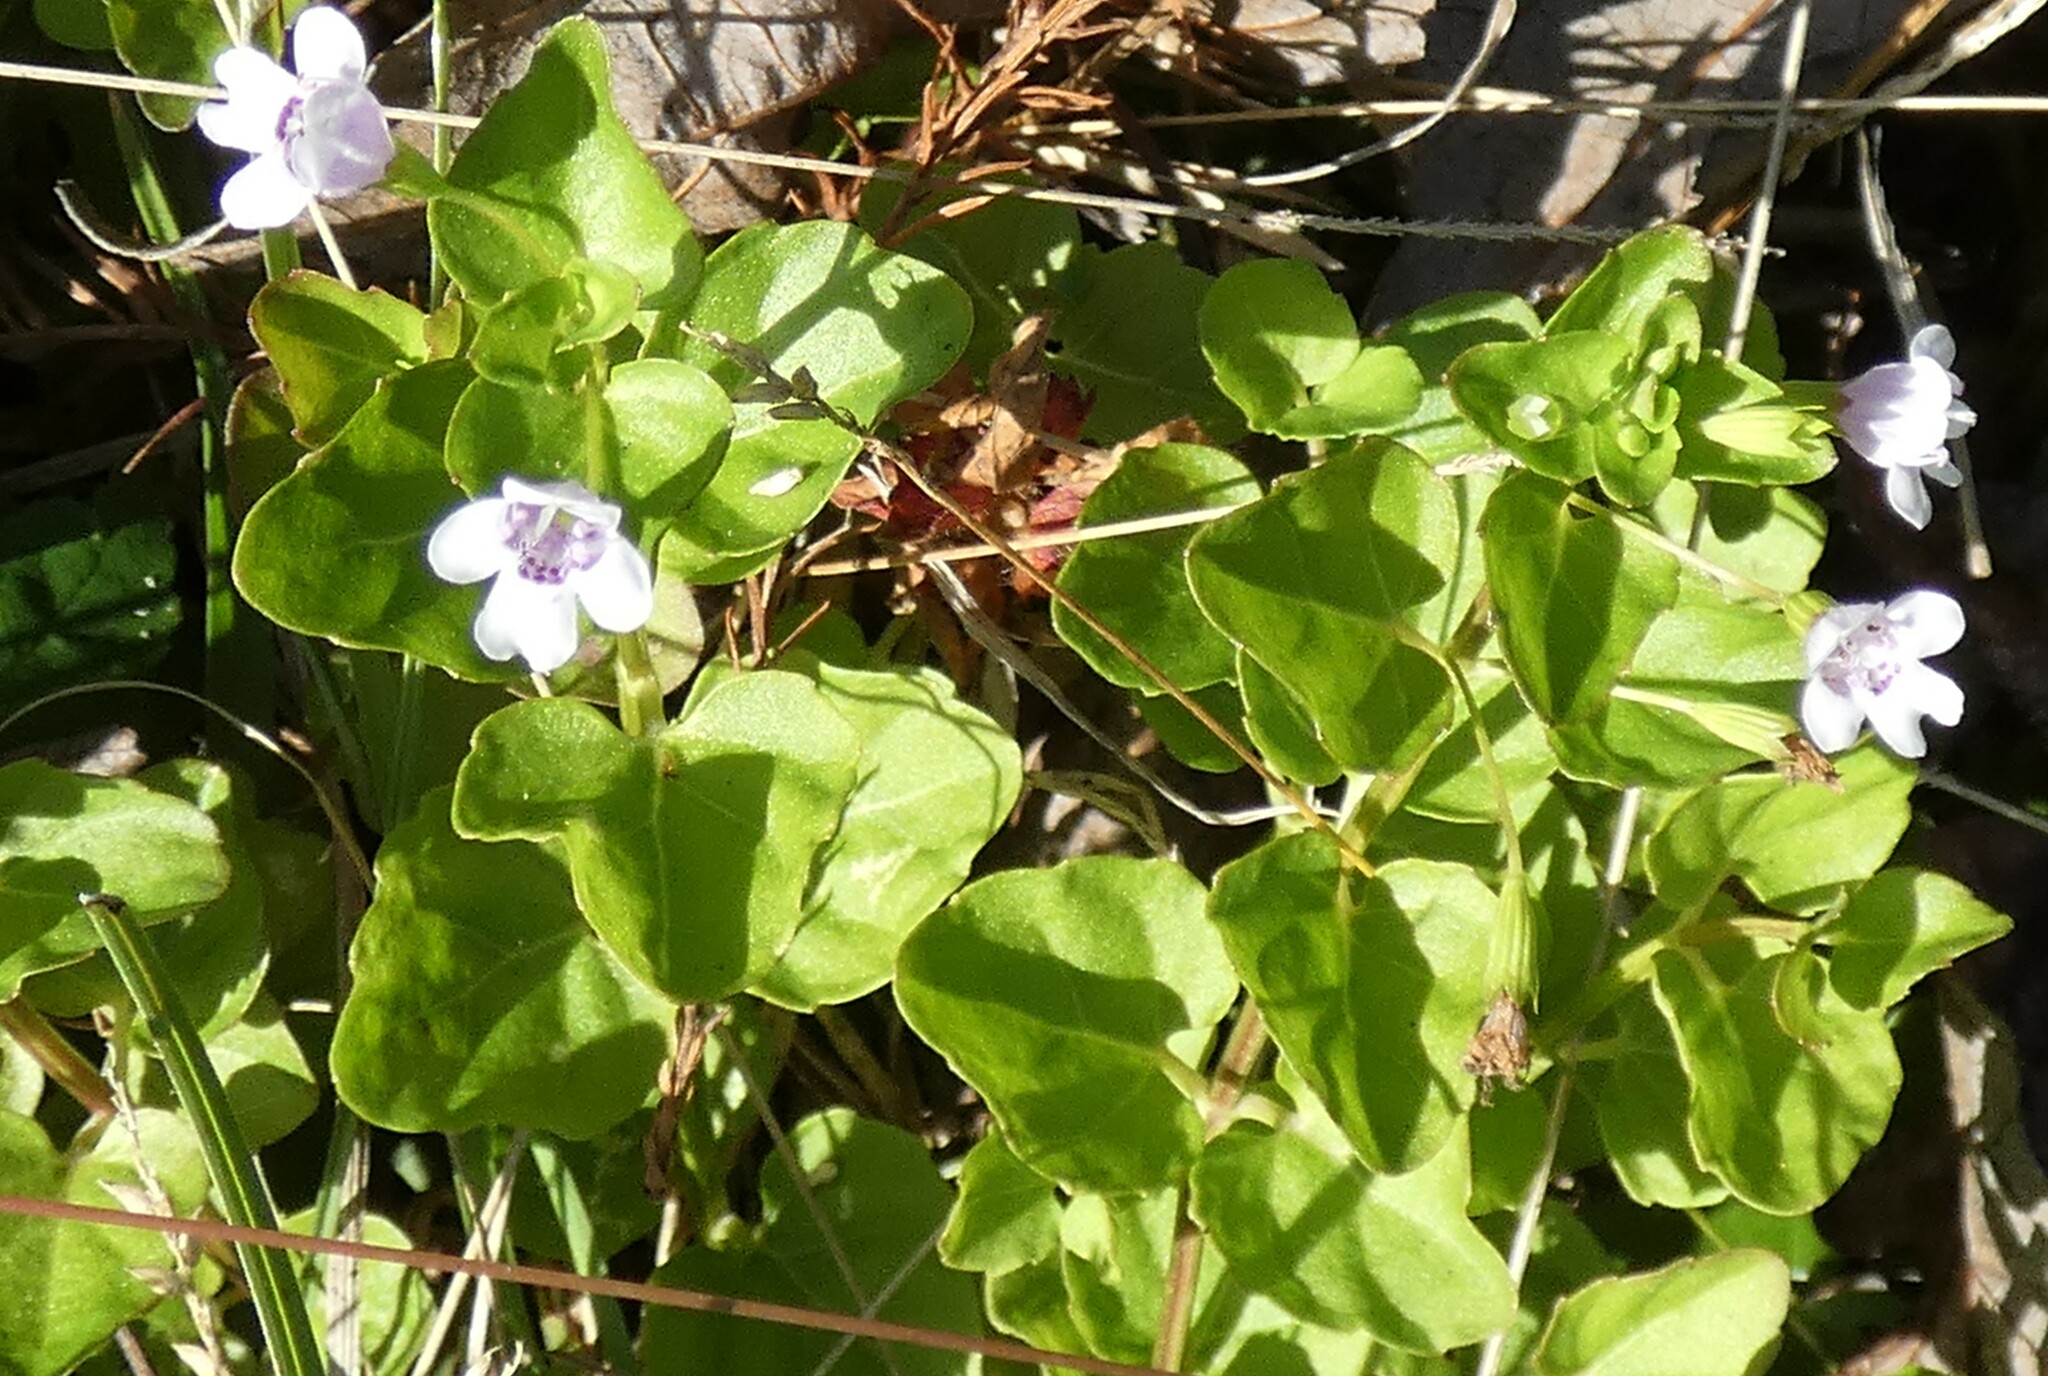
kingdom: Plantae
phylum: Tracheophyta
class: Magnoliopsida
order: Lamiales
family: Lamiaceae
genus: Clinopodium
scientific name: Clinopodium brownei
